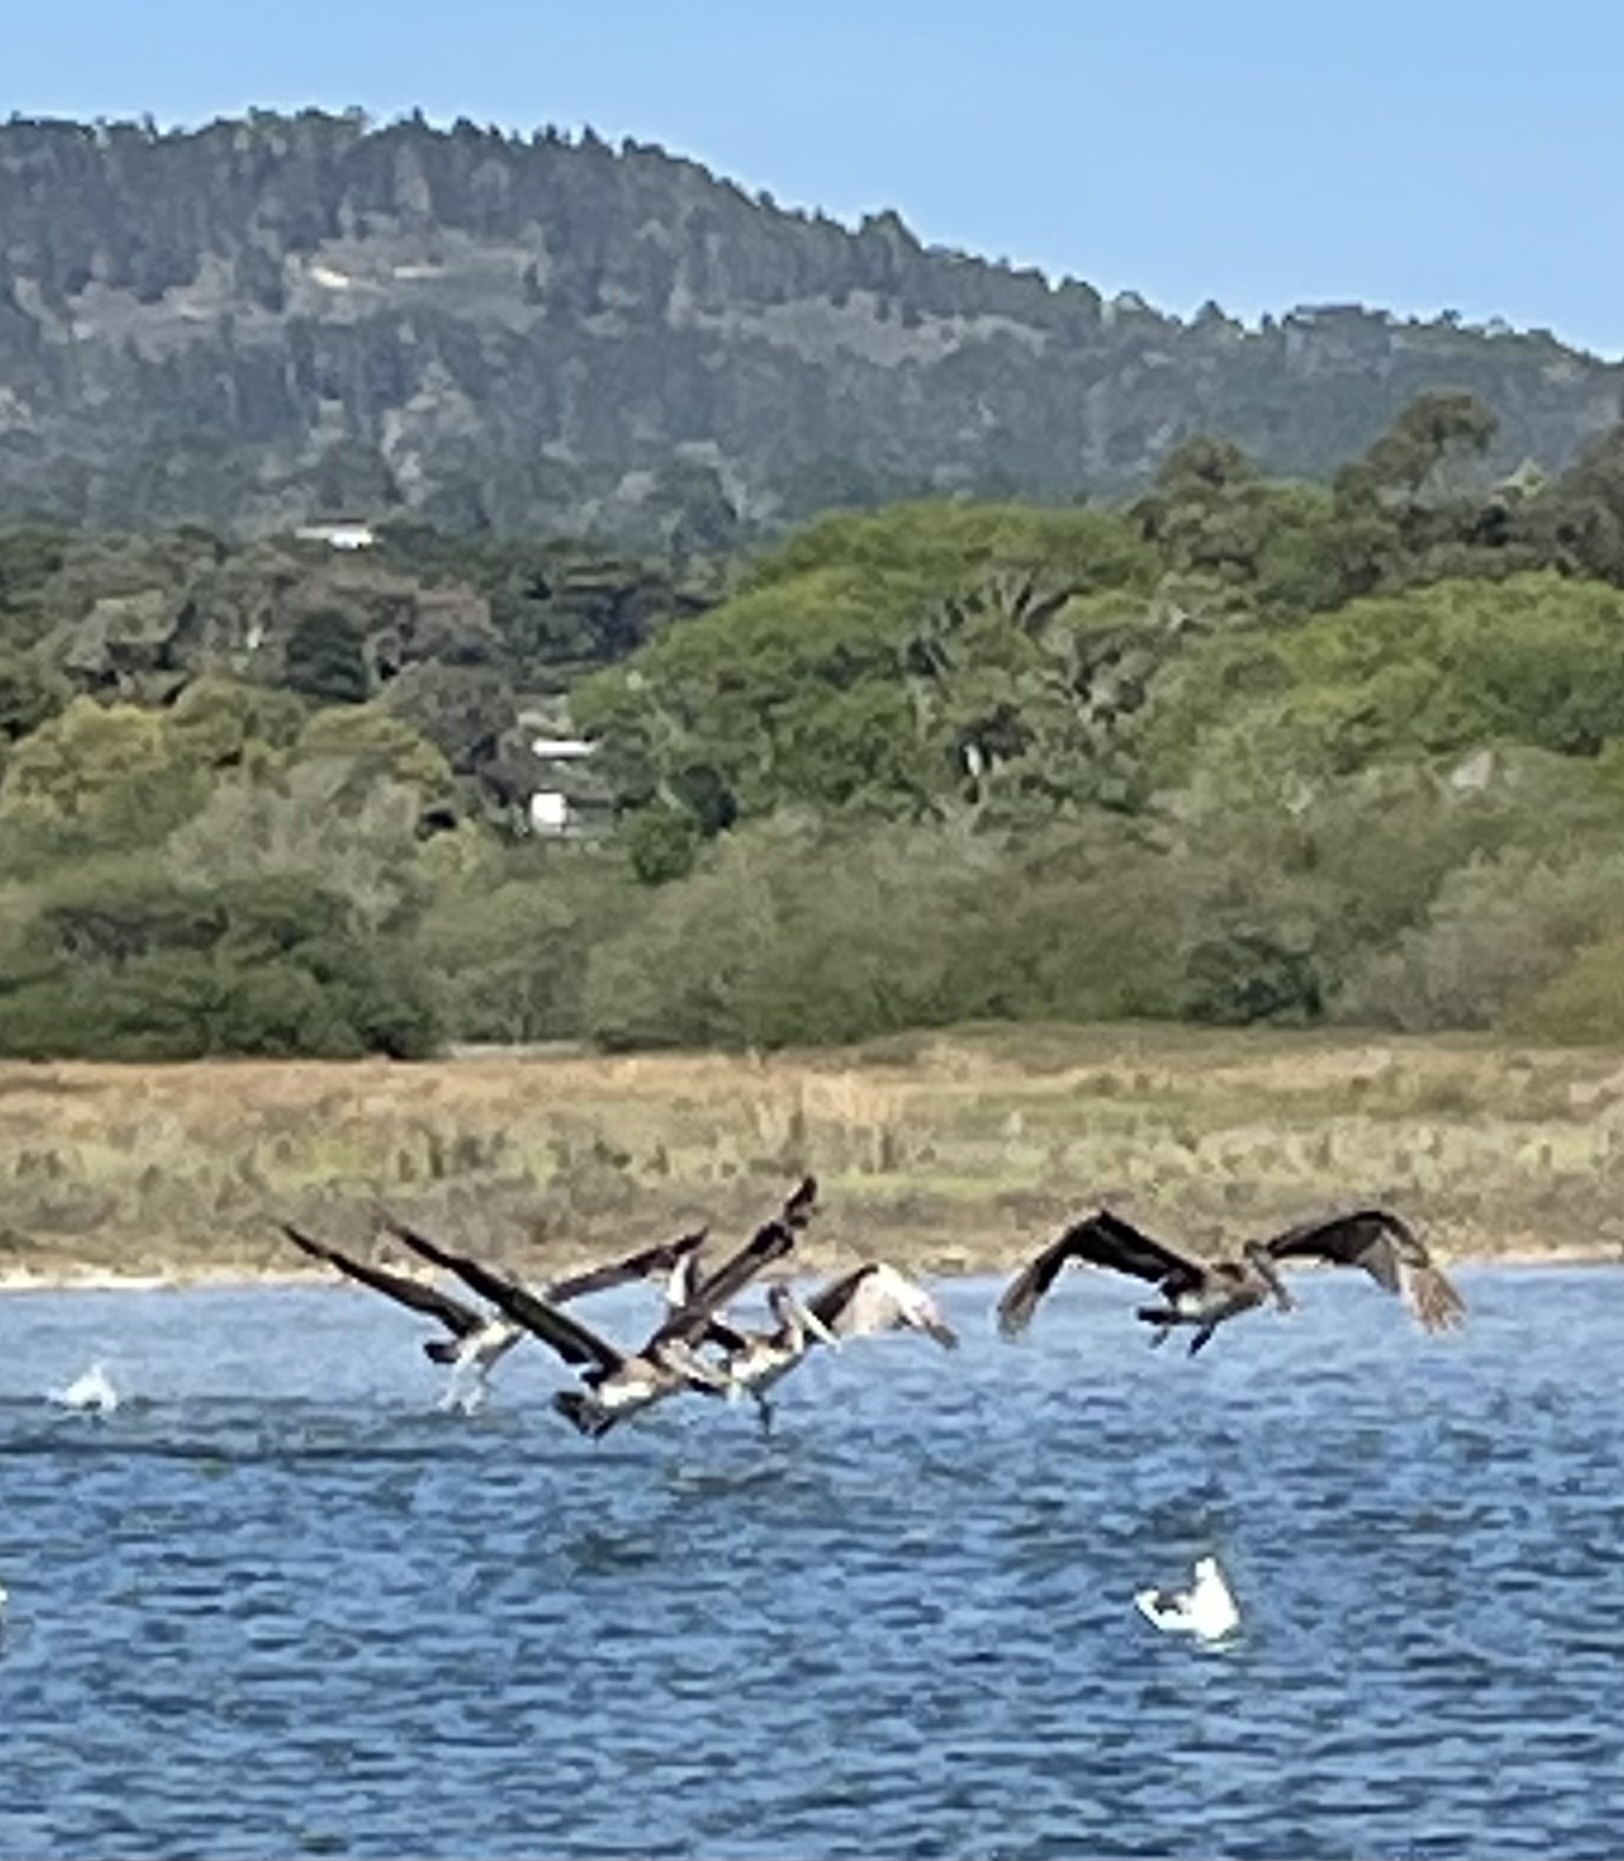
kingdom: Animalia
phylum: Chordata
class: Aves
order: Pelecaniformes
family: Pelecanidae
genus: Pelecanus
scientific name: Pelecanus occidentalis
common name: Brown pelican
